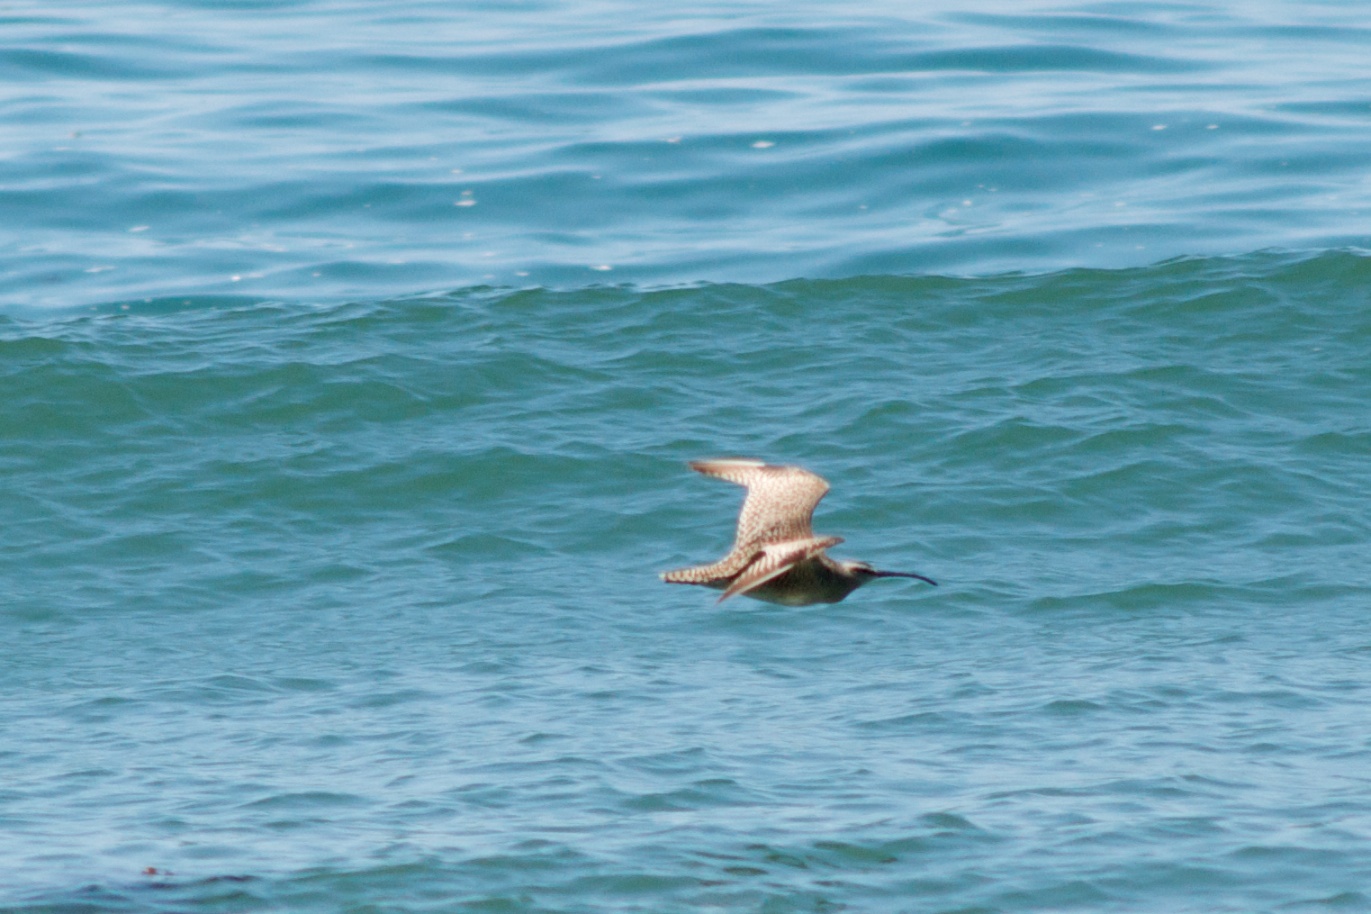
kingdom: Animalia
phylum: Chordata
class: Aves
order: Charadriiformes
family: Scolopacidae
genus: Numenius
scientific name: Numenius phaeopus
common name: Whimbrel
